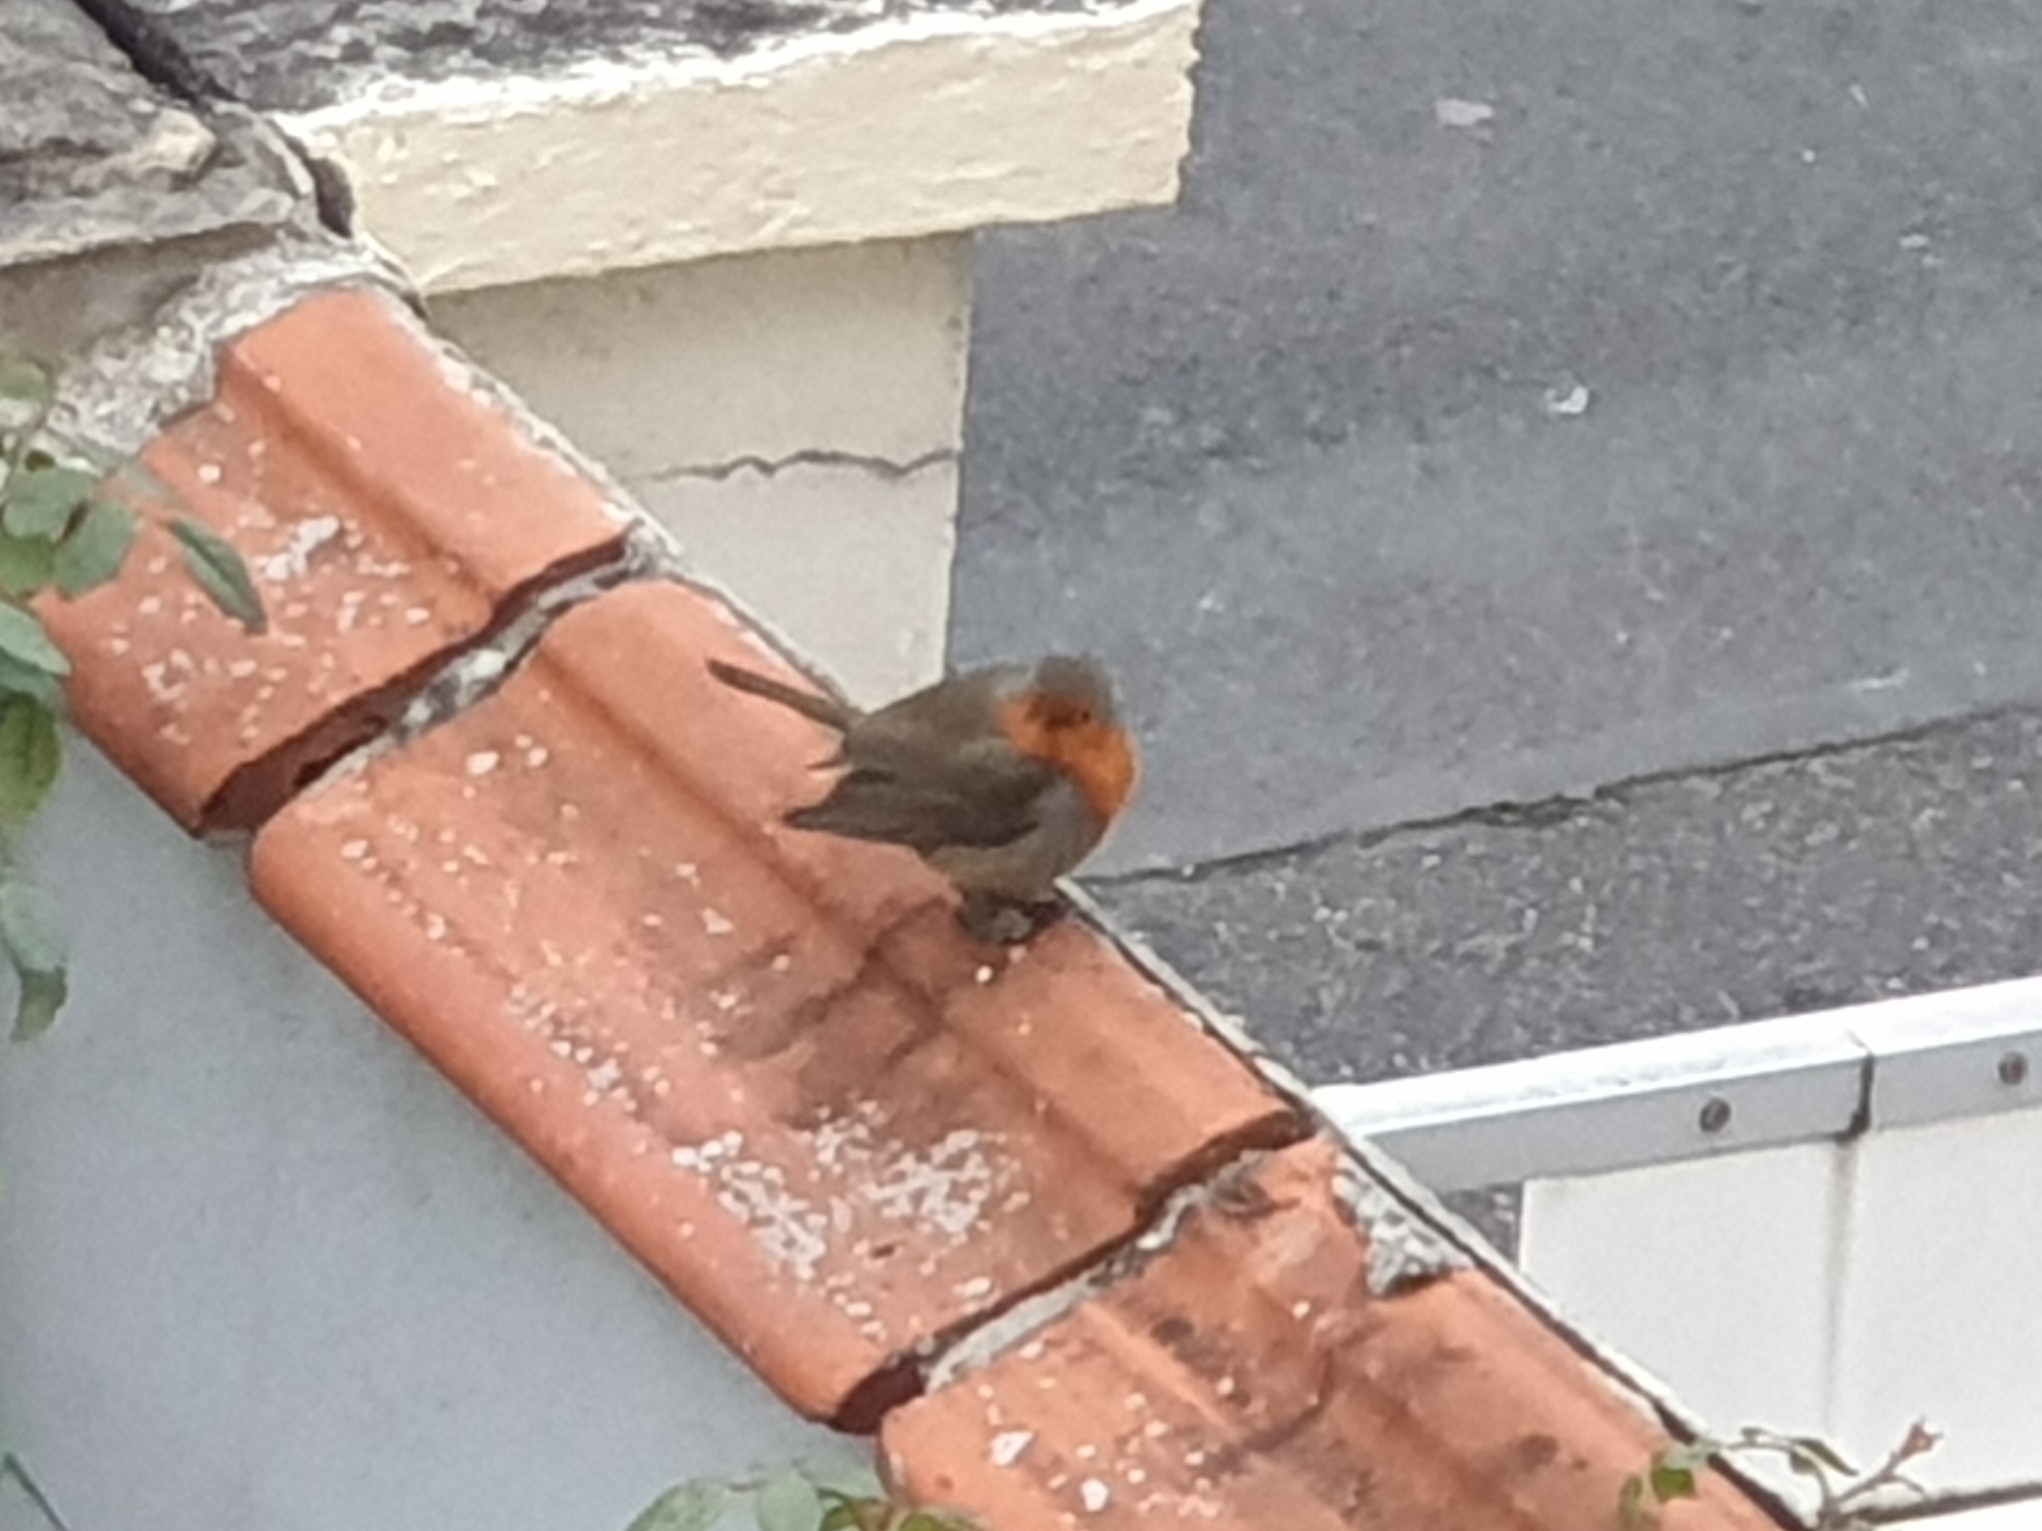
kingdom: Animalia
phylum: Chordata
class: Aves
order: Passeriformes
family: Muscicapidae
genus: Erithacus
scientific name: Erithacus rubecula
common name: European robin
